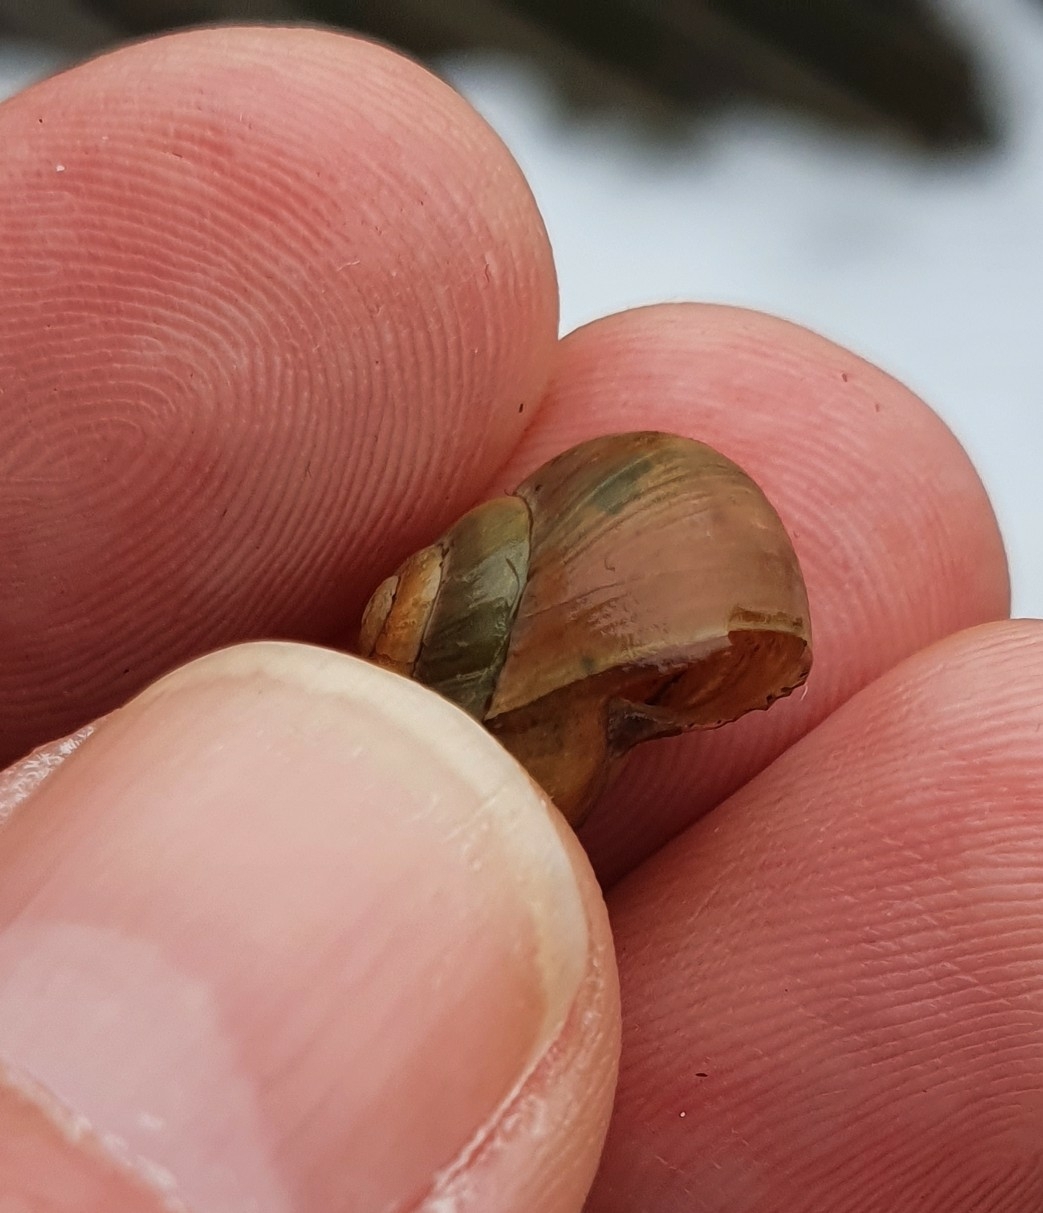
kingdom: Animalia
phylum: Mollusca
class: Gastropoda
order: Stylommatophora
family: Helicidae
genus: Cepaea
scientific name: Cepaea
